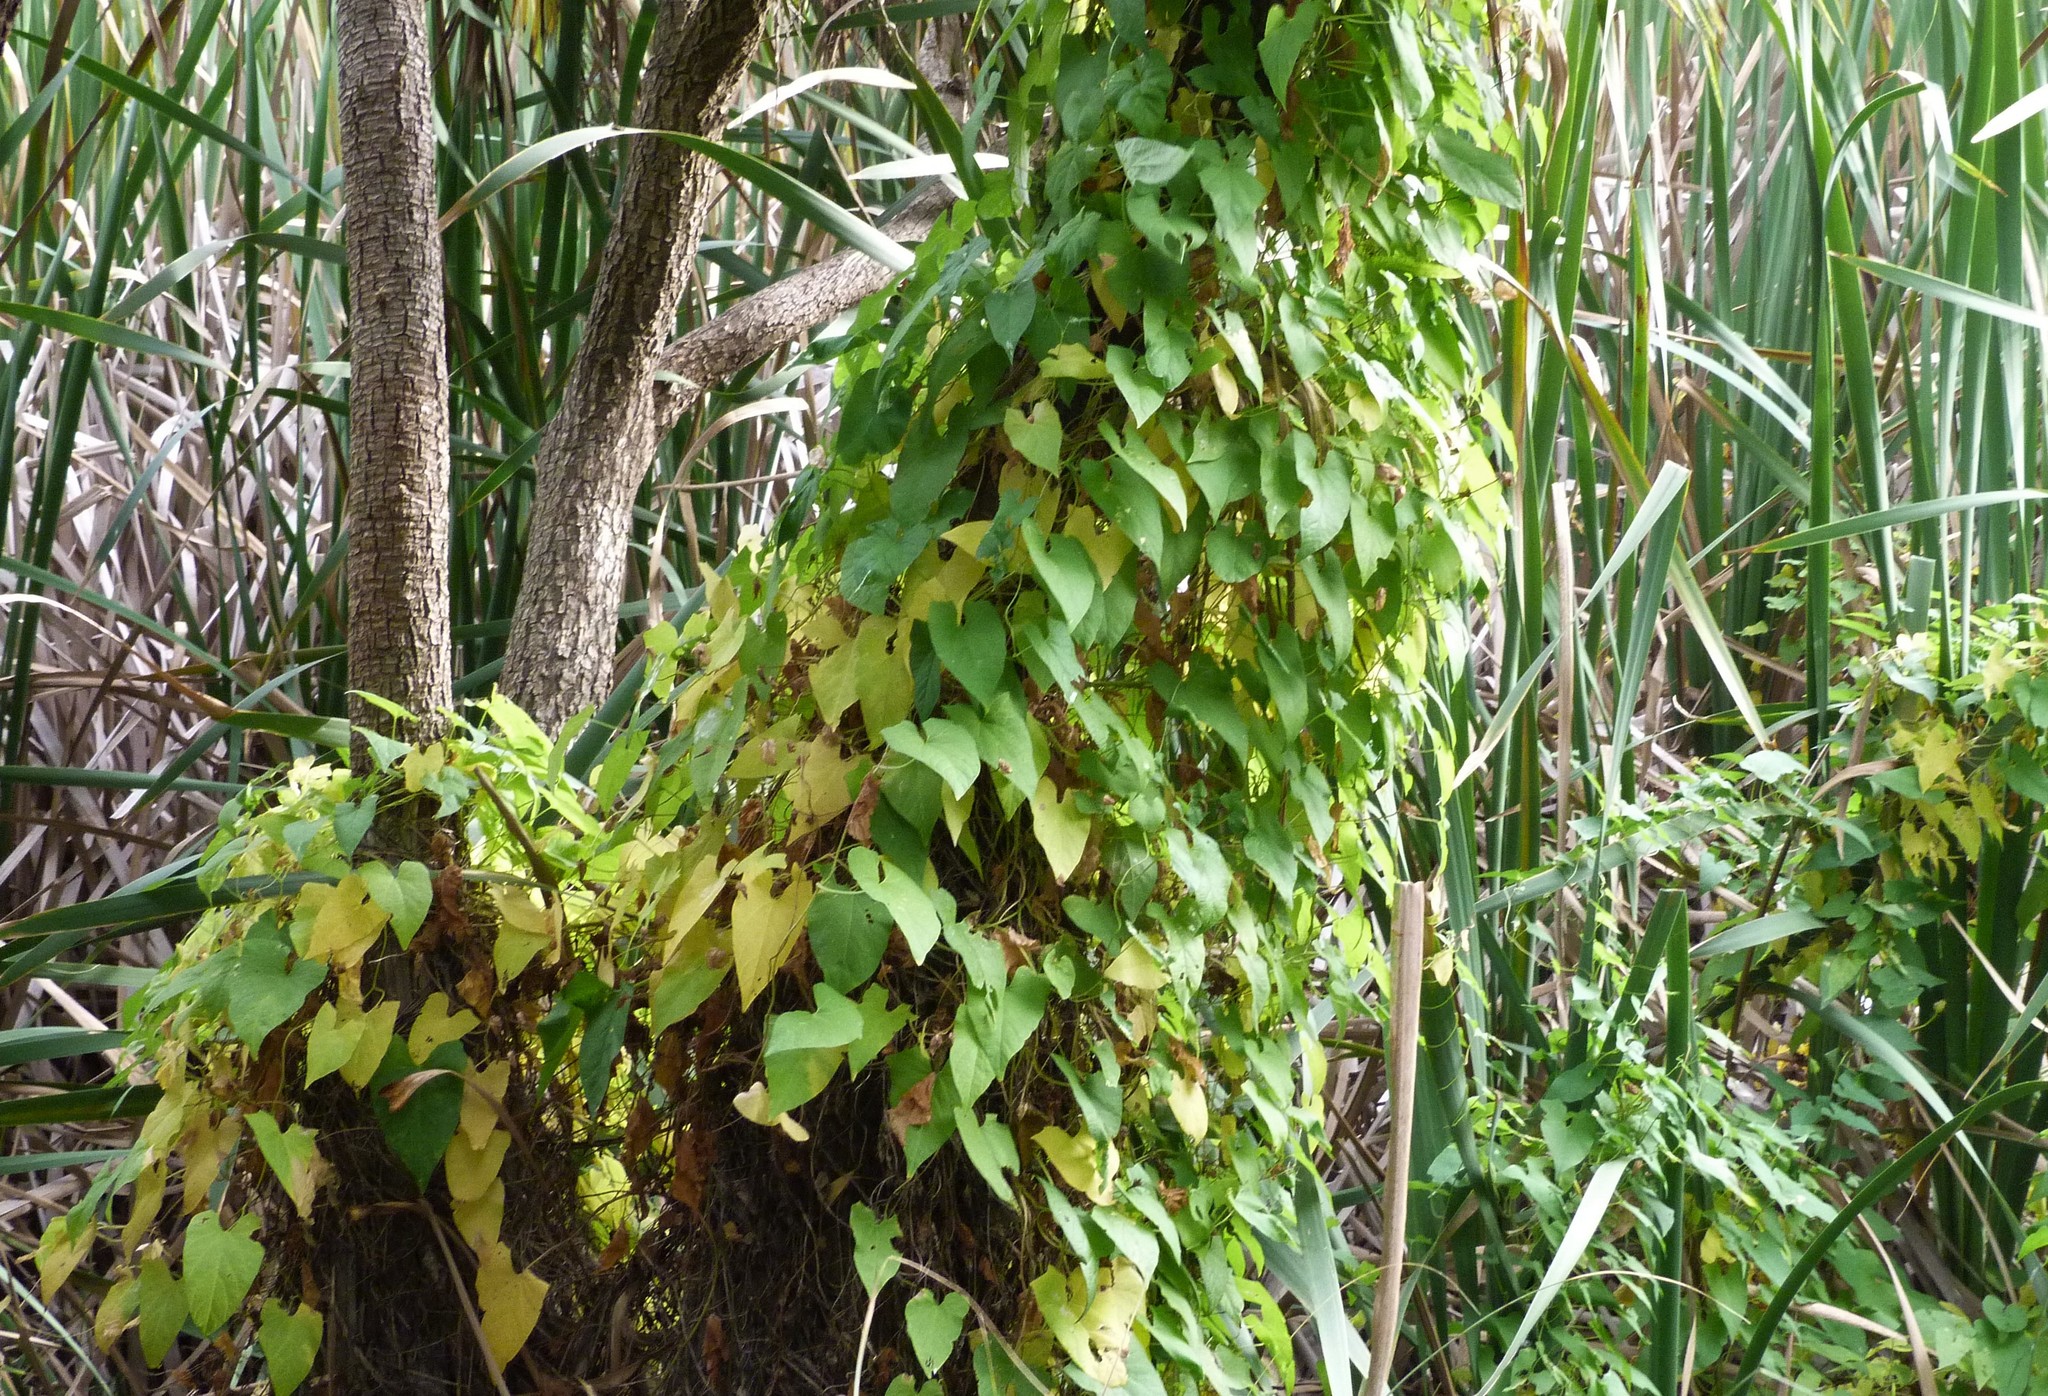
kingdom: Plantae
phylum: Tracheophyta
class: Magnoliopsida
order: Solanales
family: Convolvulaceae
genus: Calystegia
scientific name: Calystegia silvatica
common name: Large bindweed
